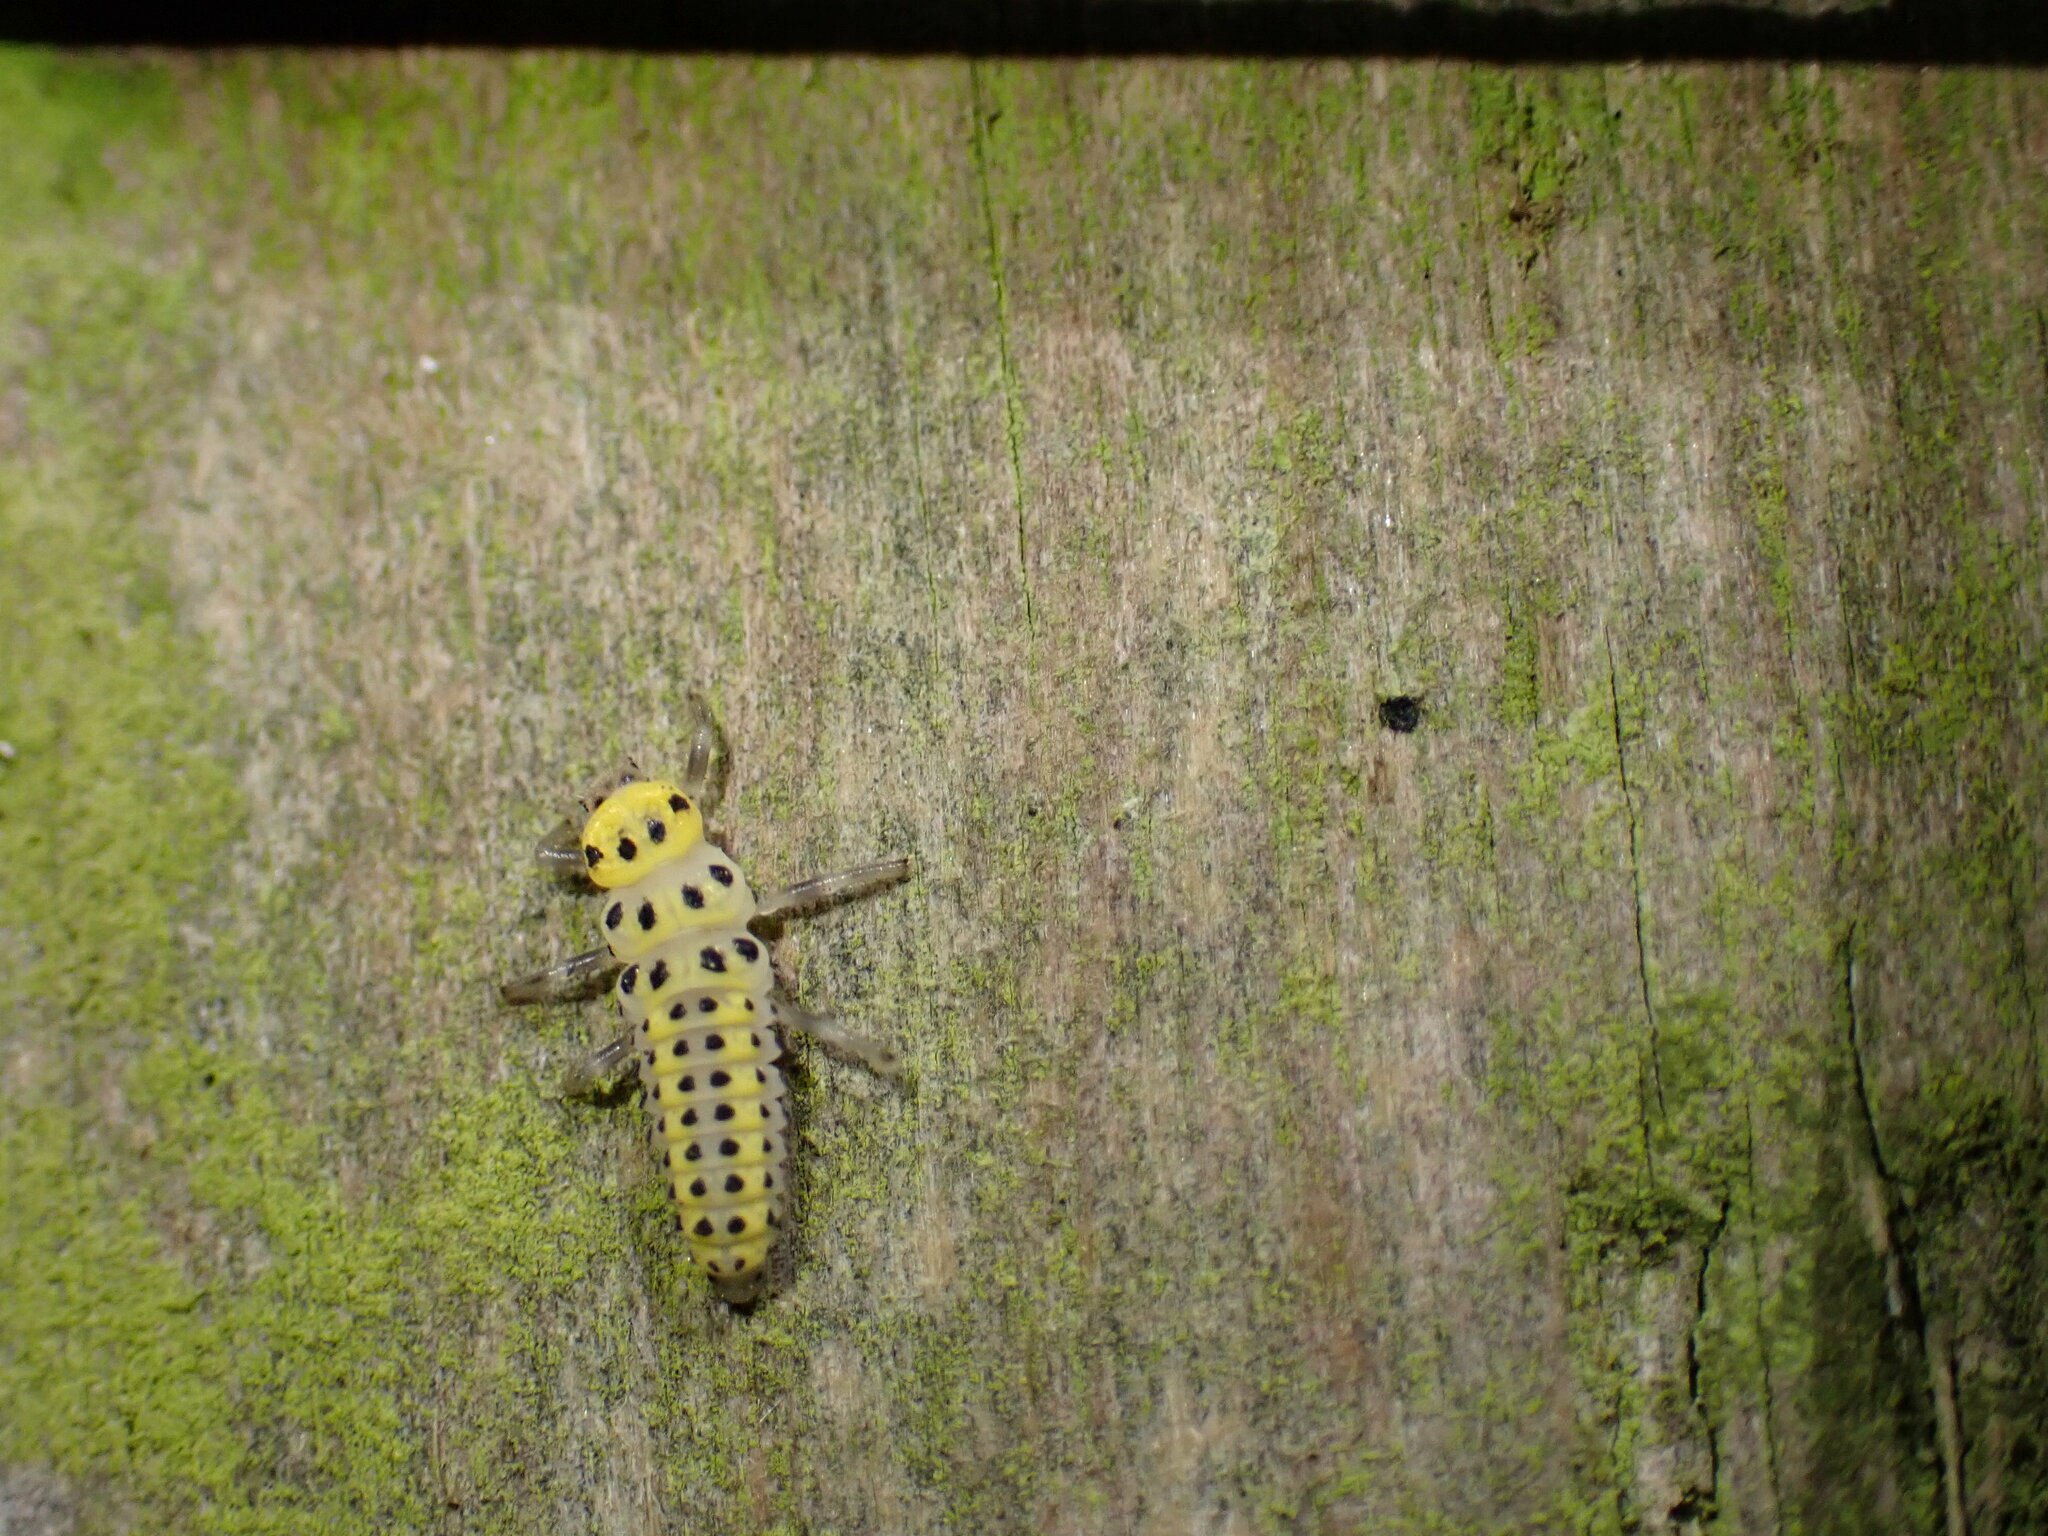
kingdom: Animalia
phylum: Arthropoda
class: Insecta
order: Coleoptera
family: Coccinellidae
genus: Halyzia
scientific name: Halyzia sedecimguttata
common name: Orange ladybird
